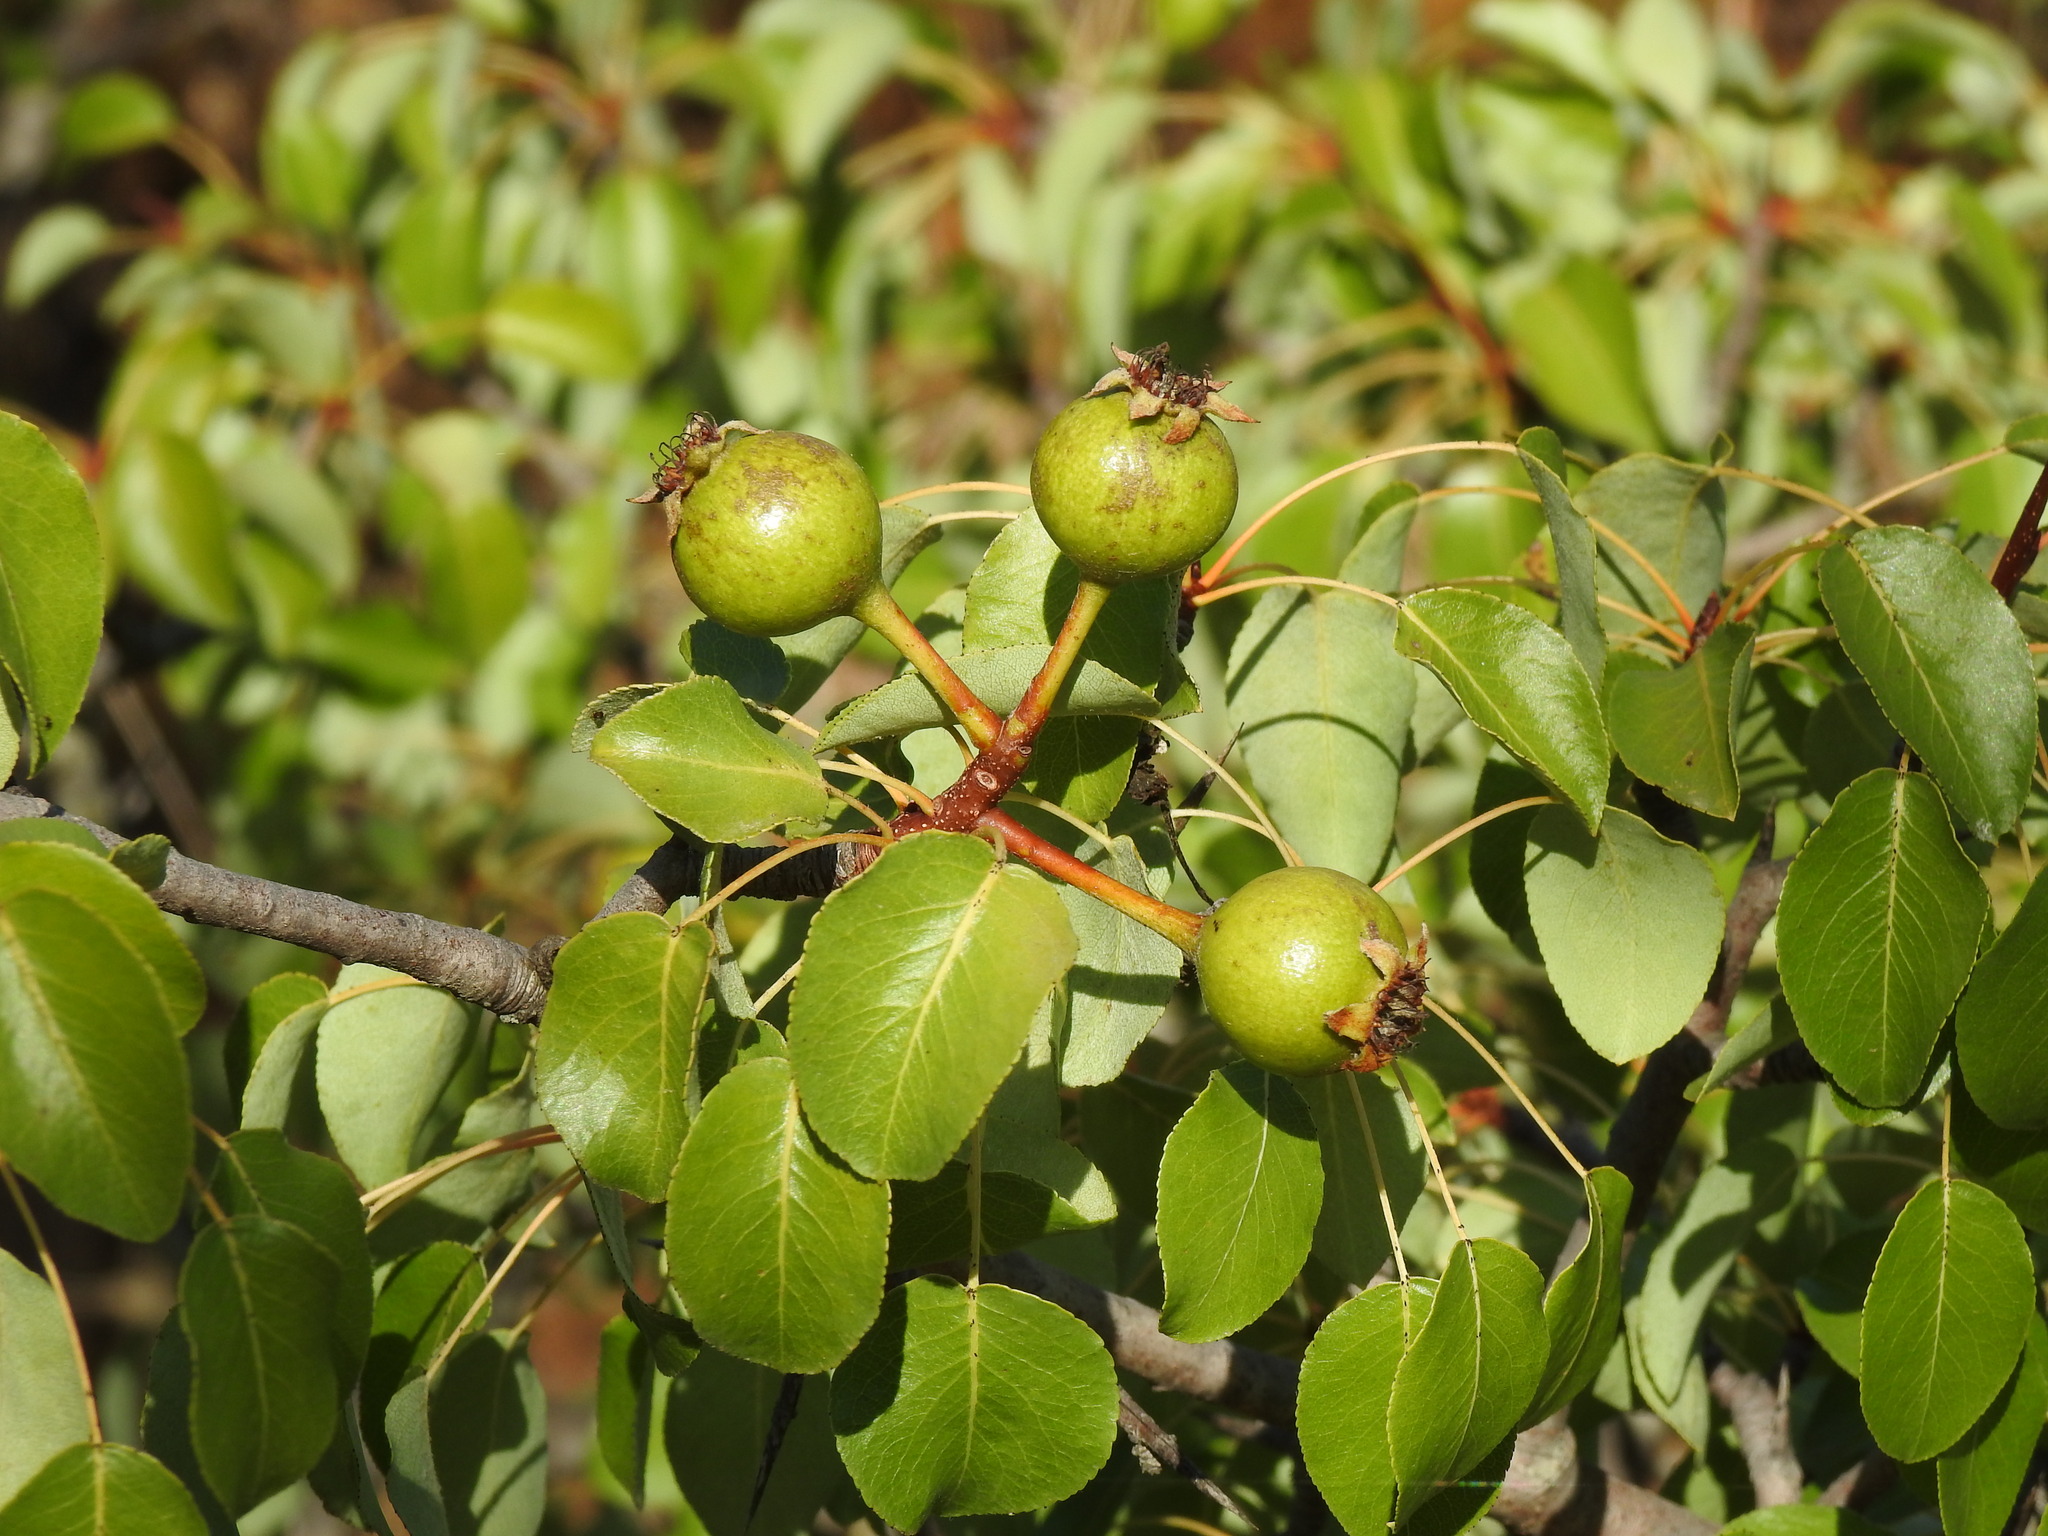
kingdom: Plantae
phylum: Tracheophyta
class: Magnoliopsida
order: Rosales
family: Rosaceae
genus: Pyrus
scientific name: Pyrus bourgaeana
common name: Iberian pear
